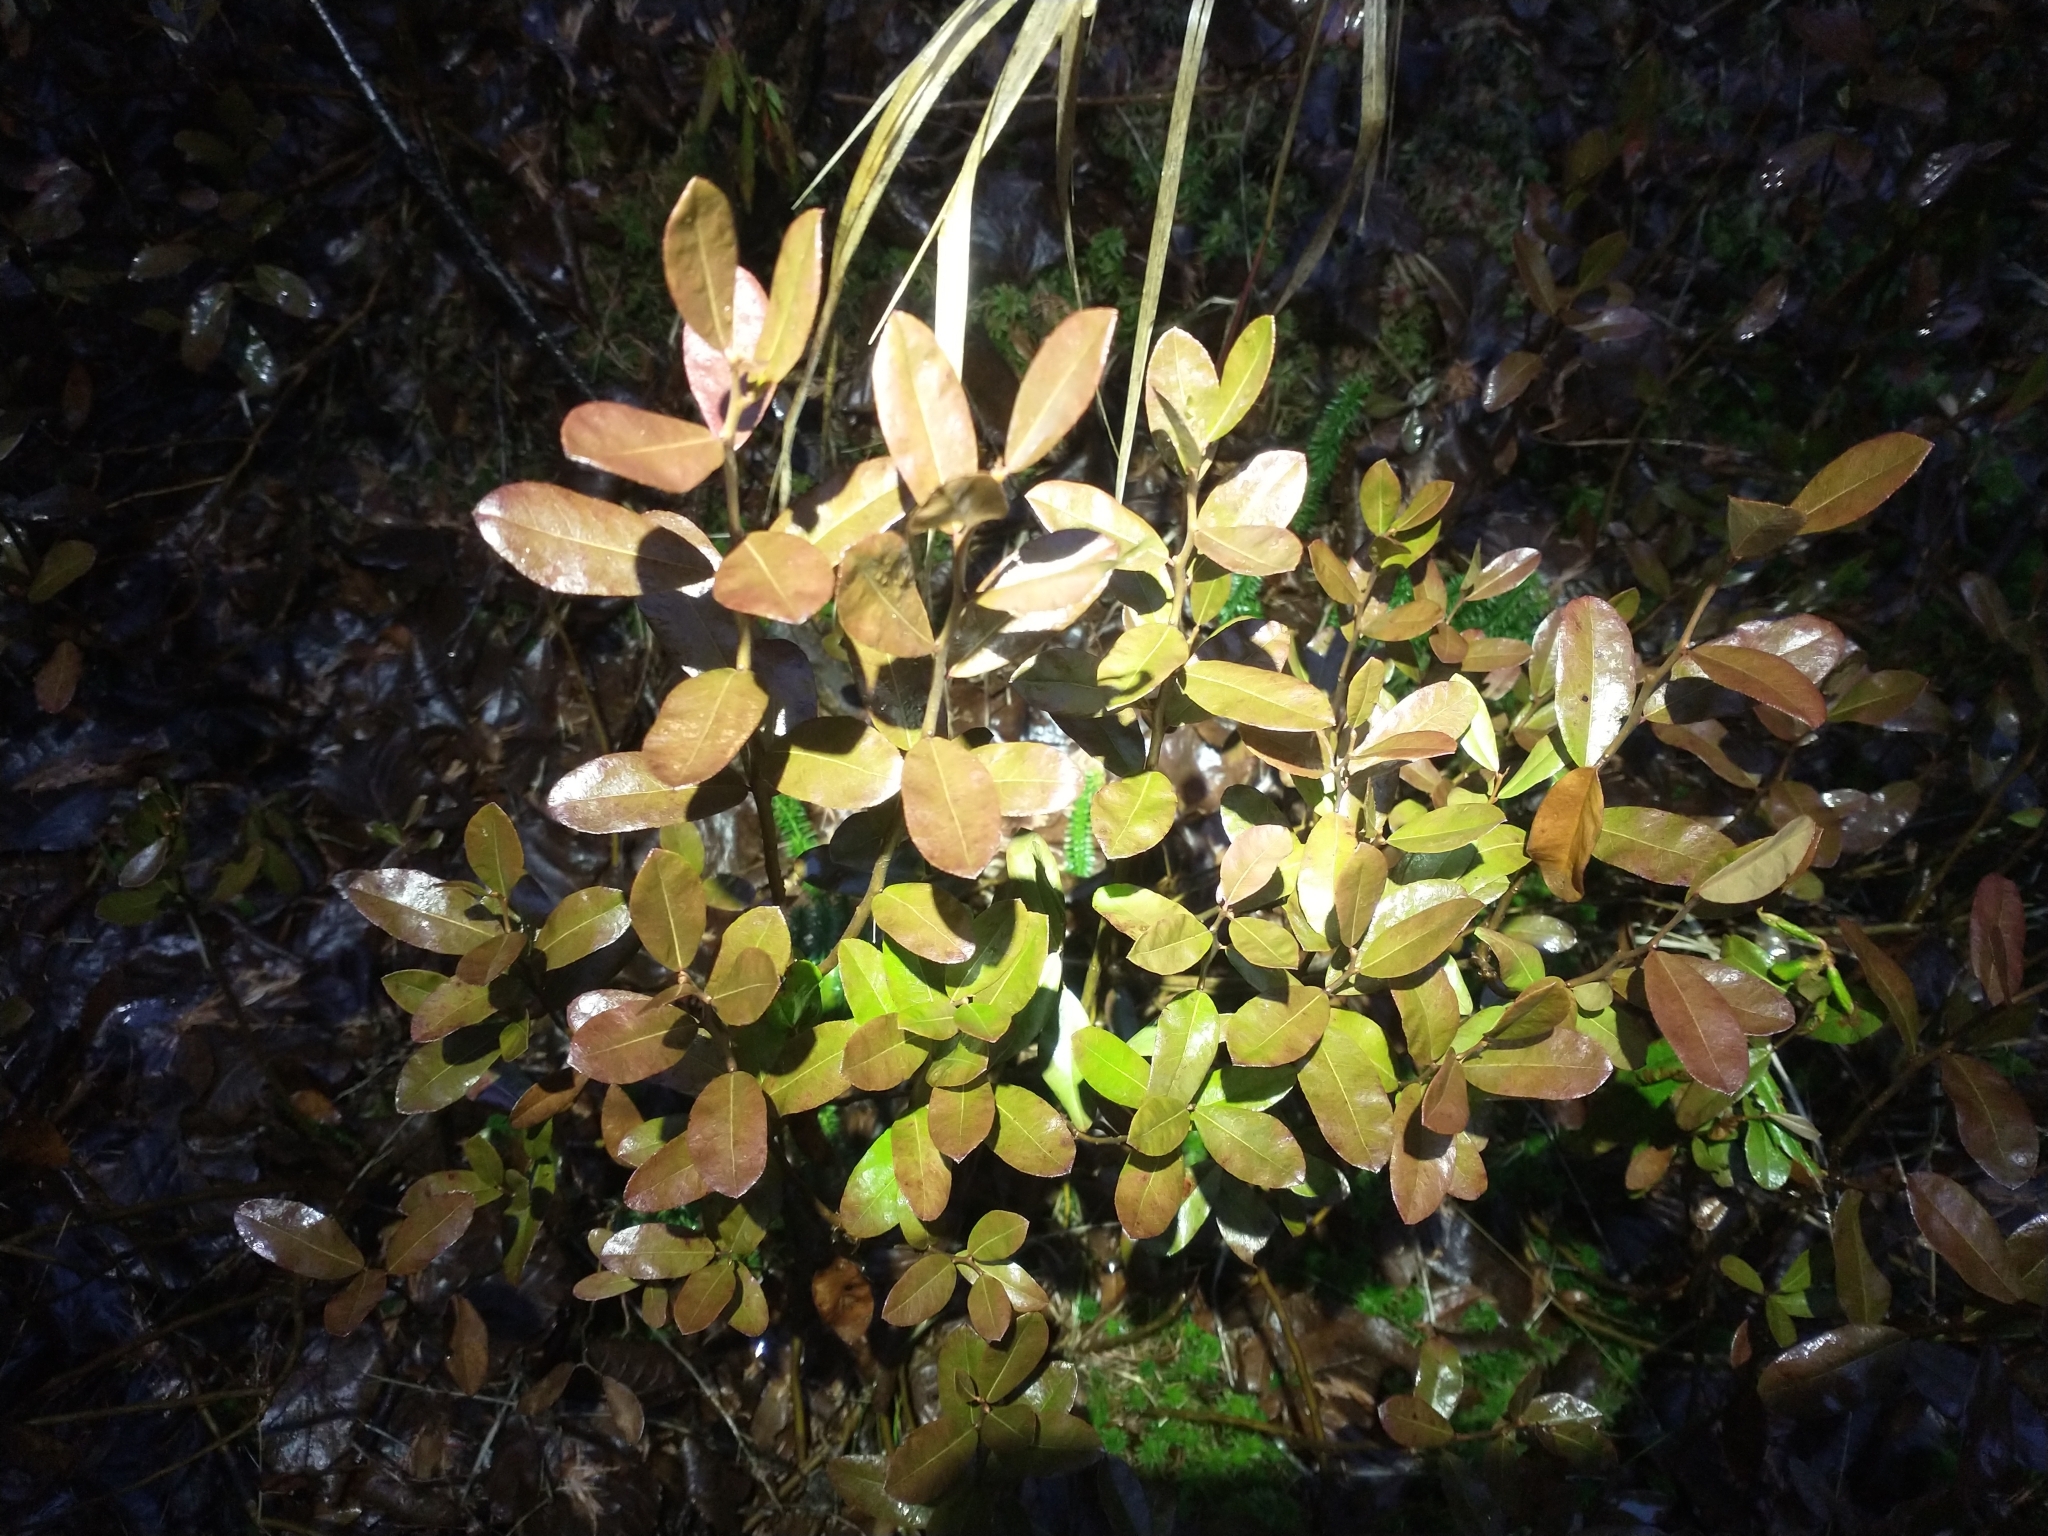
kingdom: Plantae
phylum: Tracheophyta
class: Magnoliopsida
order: Ericales
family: Ericaceae
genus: Chamaedaphne
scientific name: Chamaedaphne calyculata
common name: Leatherleaf
